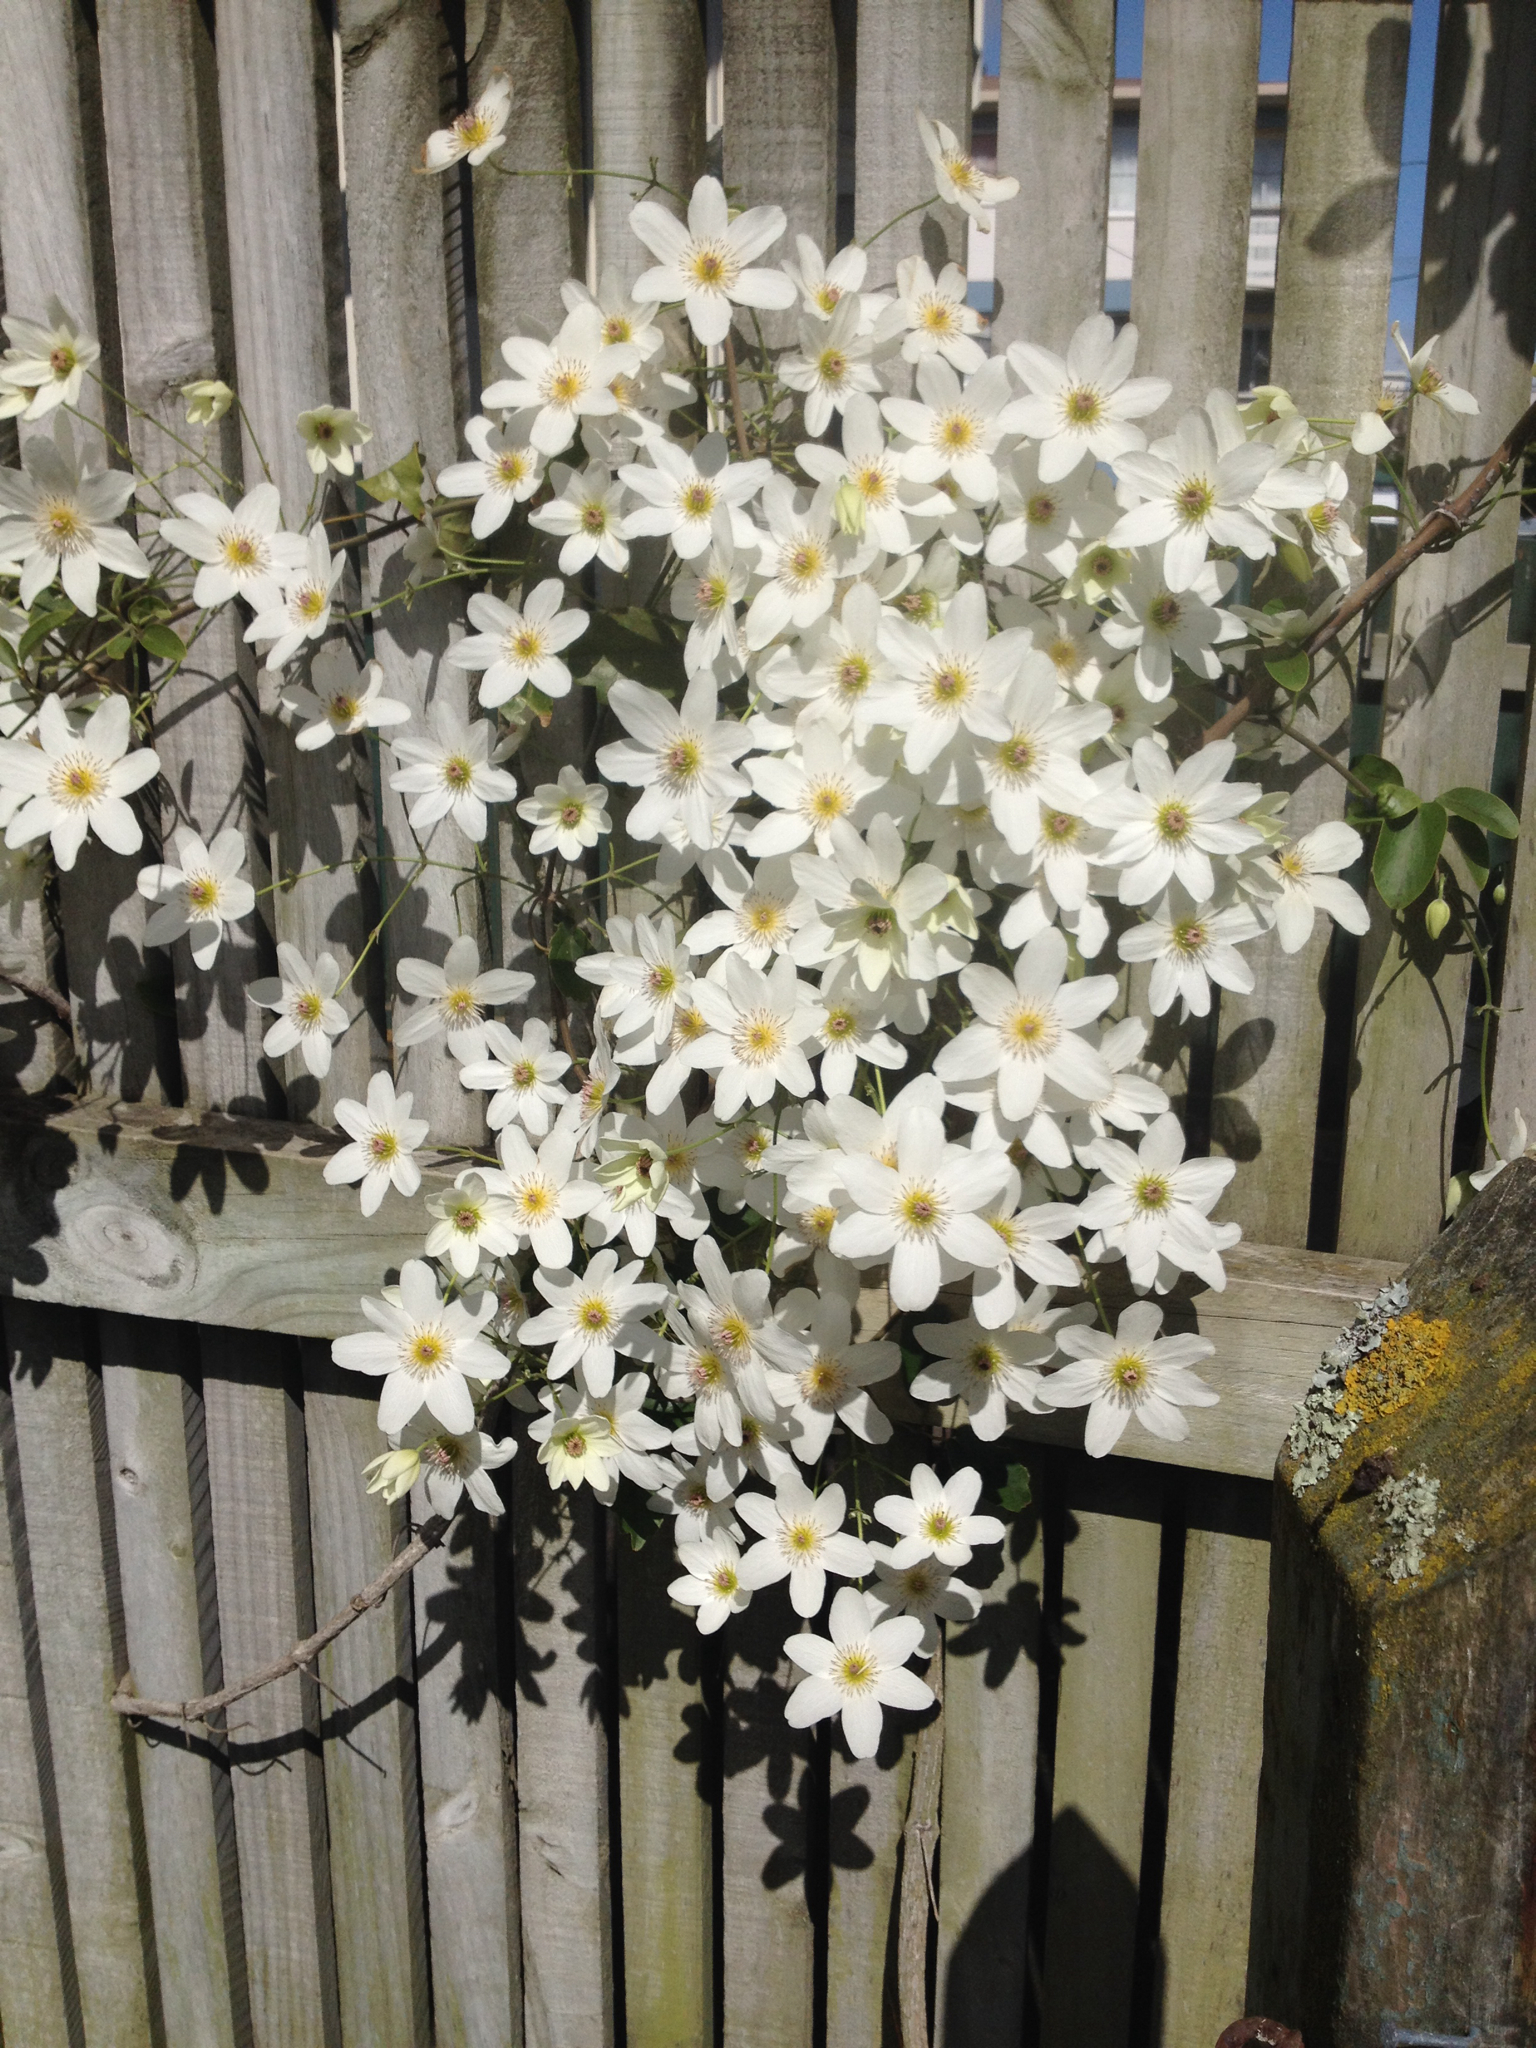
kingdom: Plantae
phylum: Tracheophyta
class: Magnoliopsida
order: Ranunculales
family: Ranunculaceae
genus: Clematis
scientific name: Clematis paniculata
